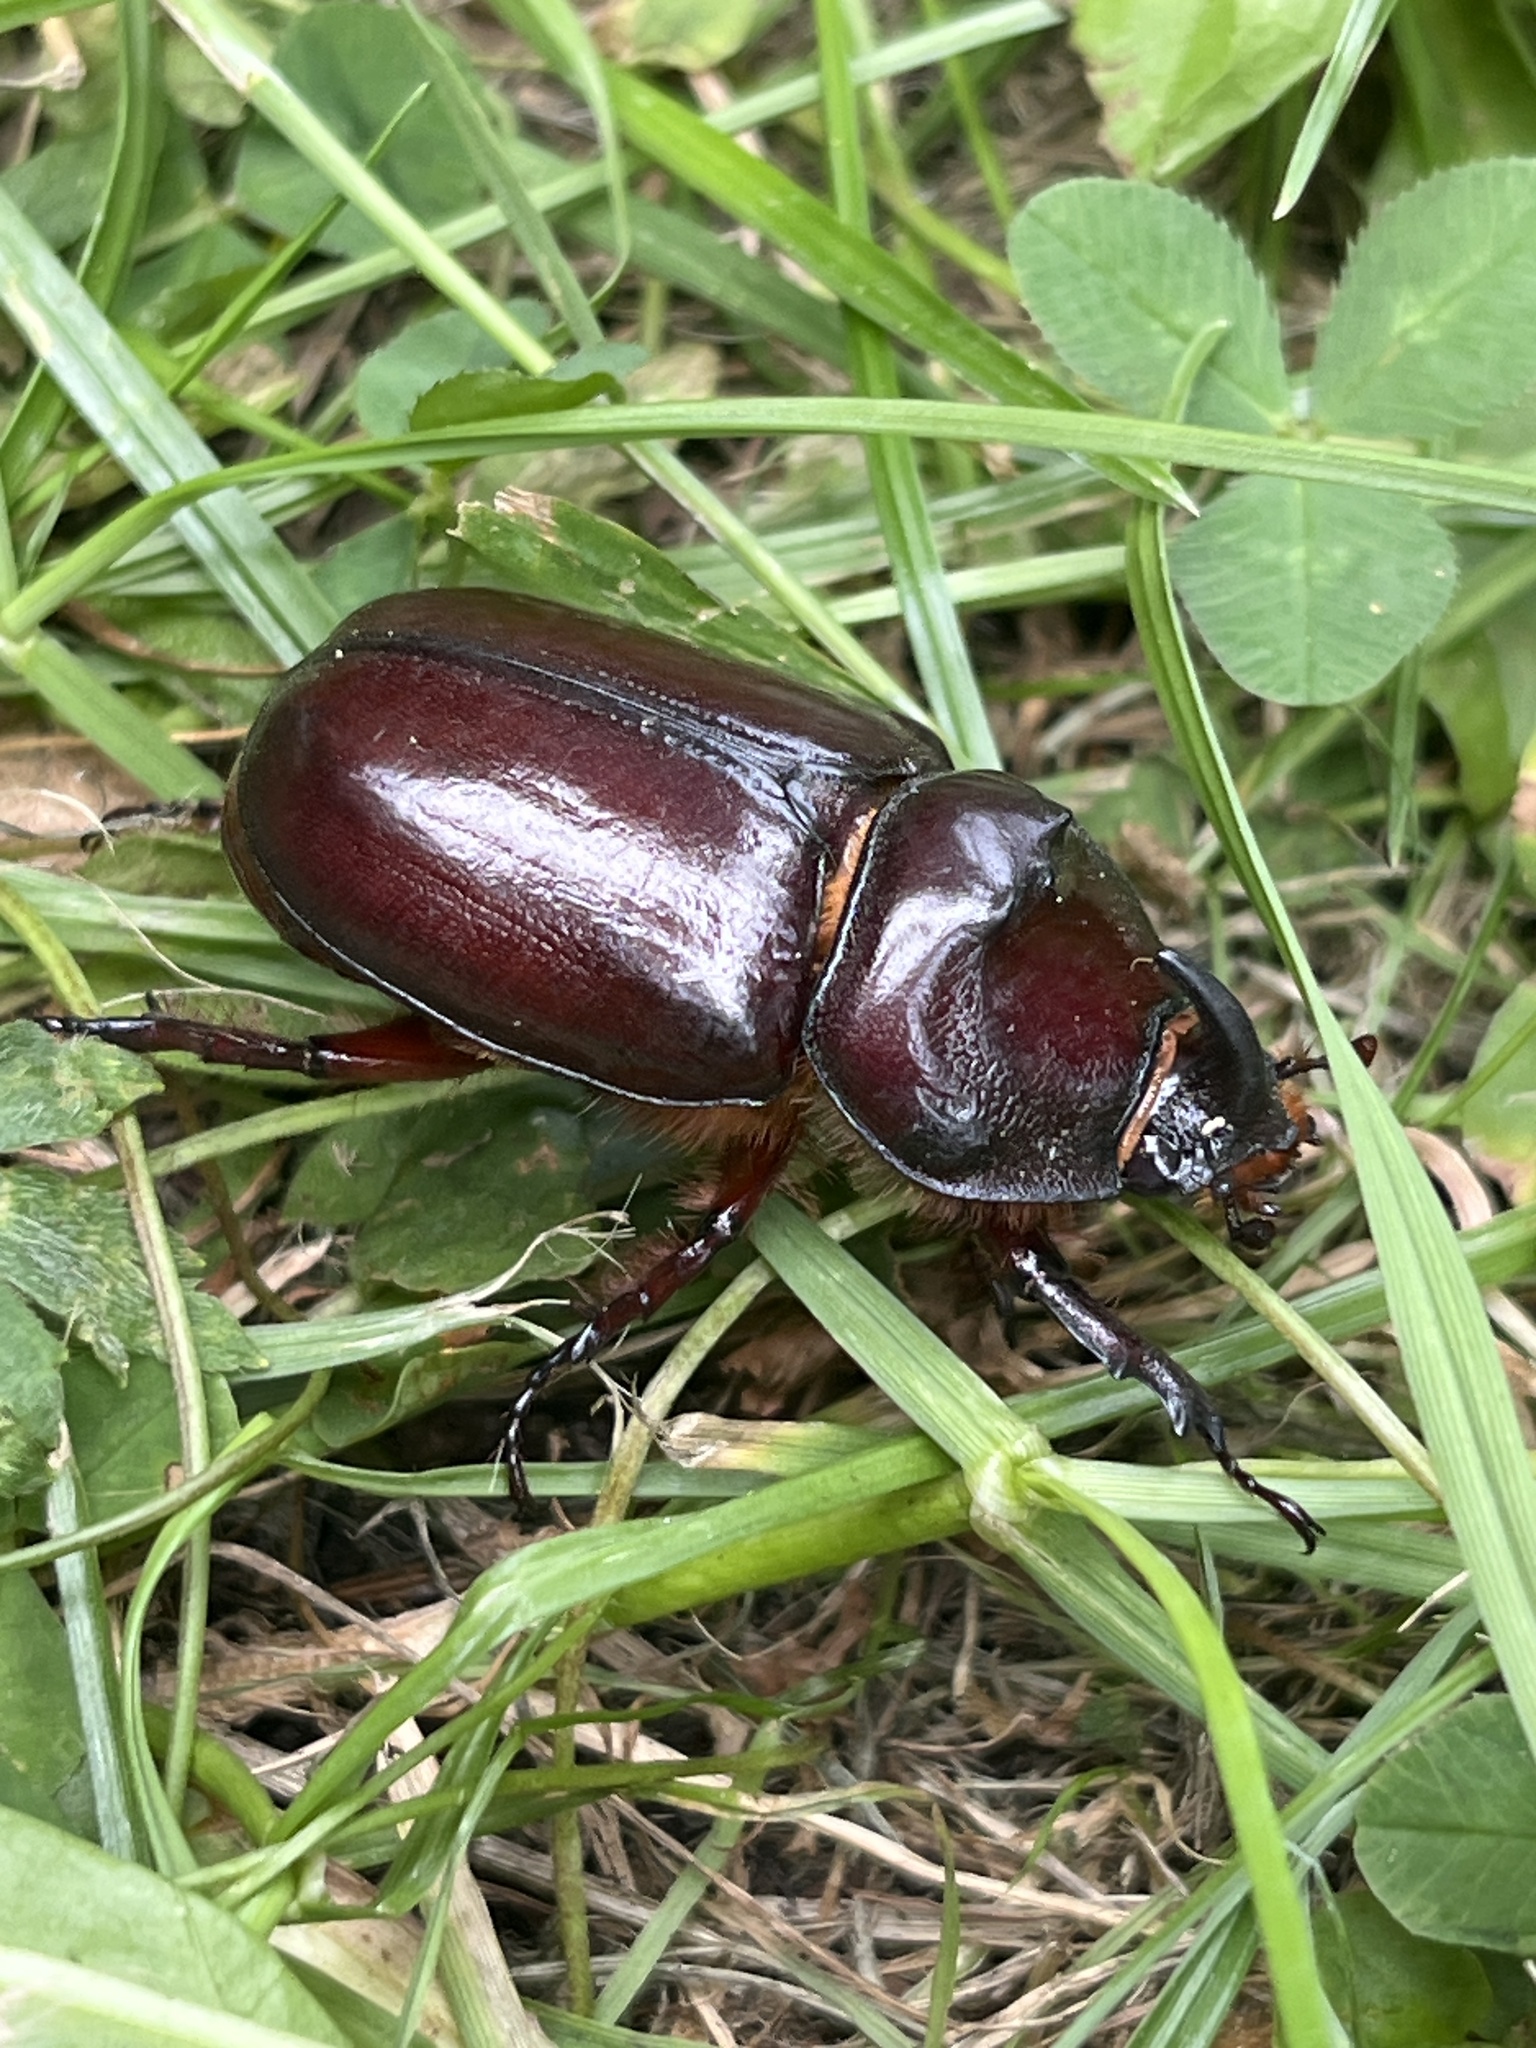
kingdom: Animalia
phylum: Arthropoda
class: Insecta
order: Coleoptera
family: Scarabaeidae
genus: Oryctes
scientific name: Oryctes nasicornis
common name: European rhinoceros beetle
